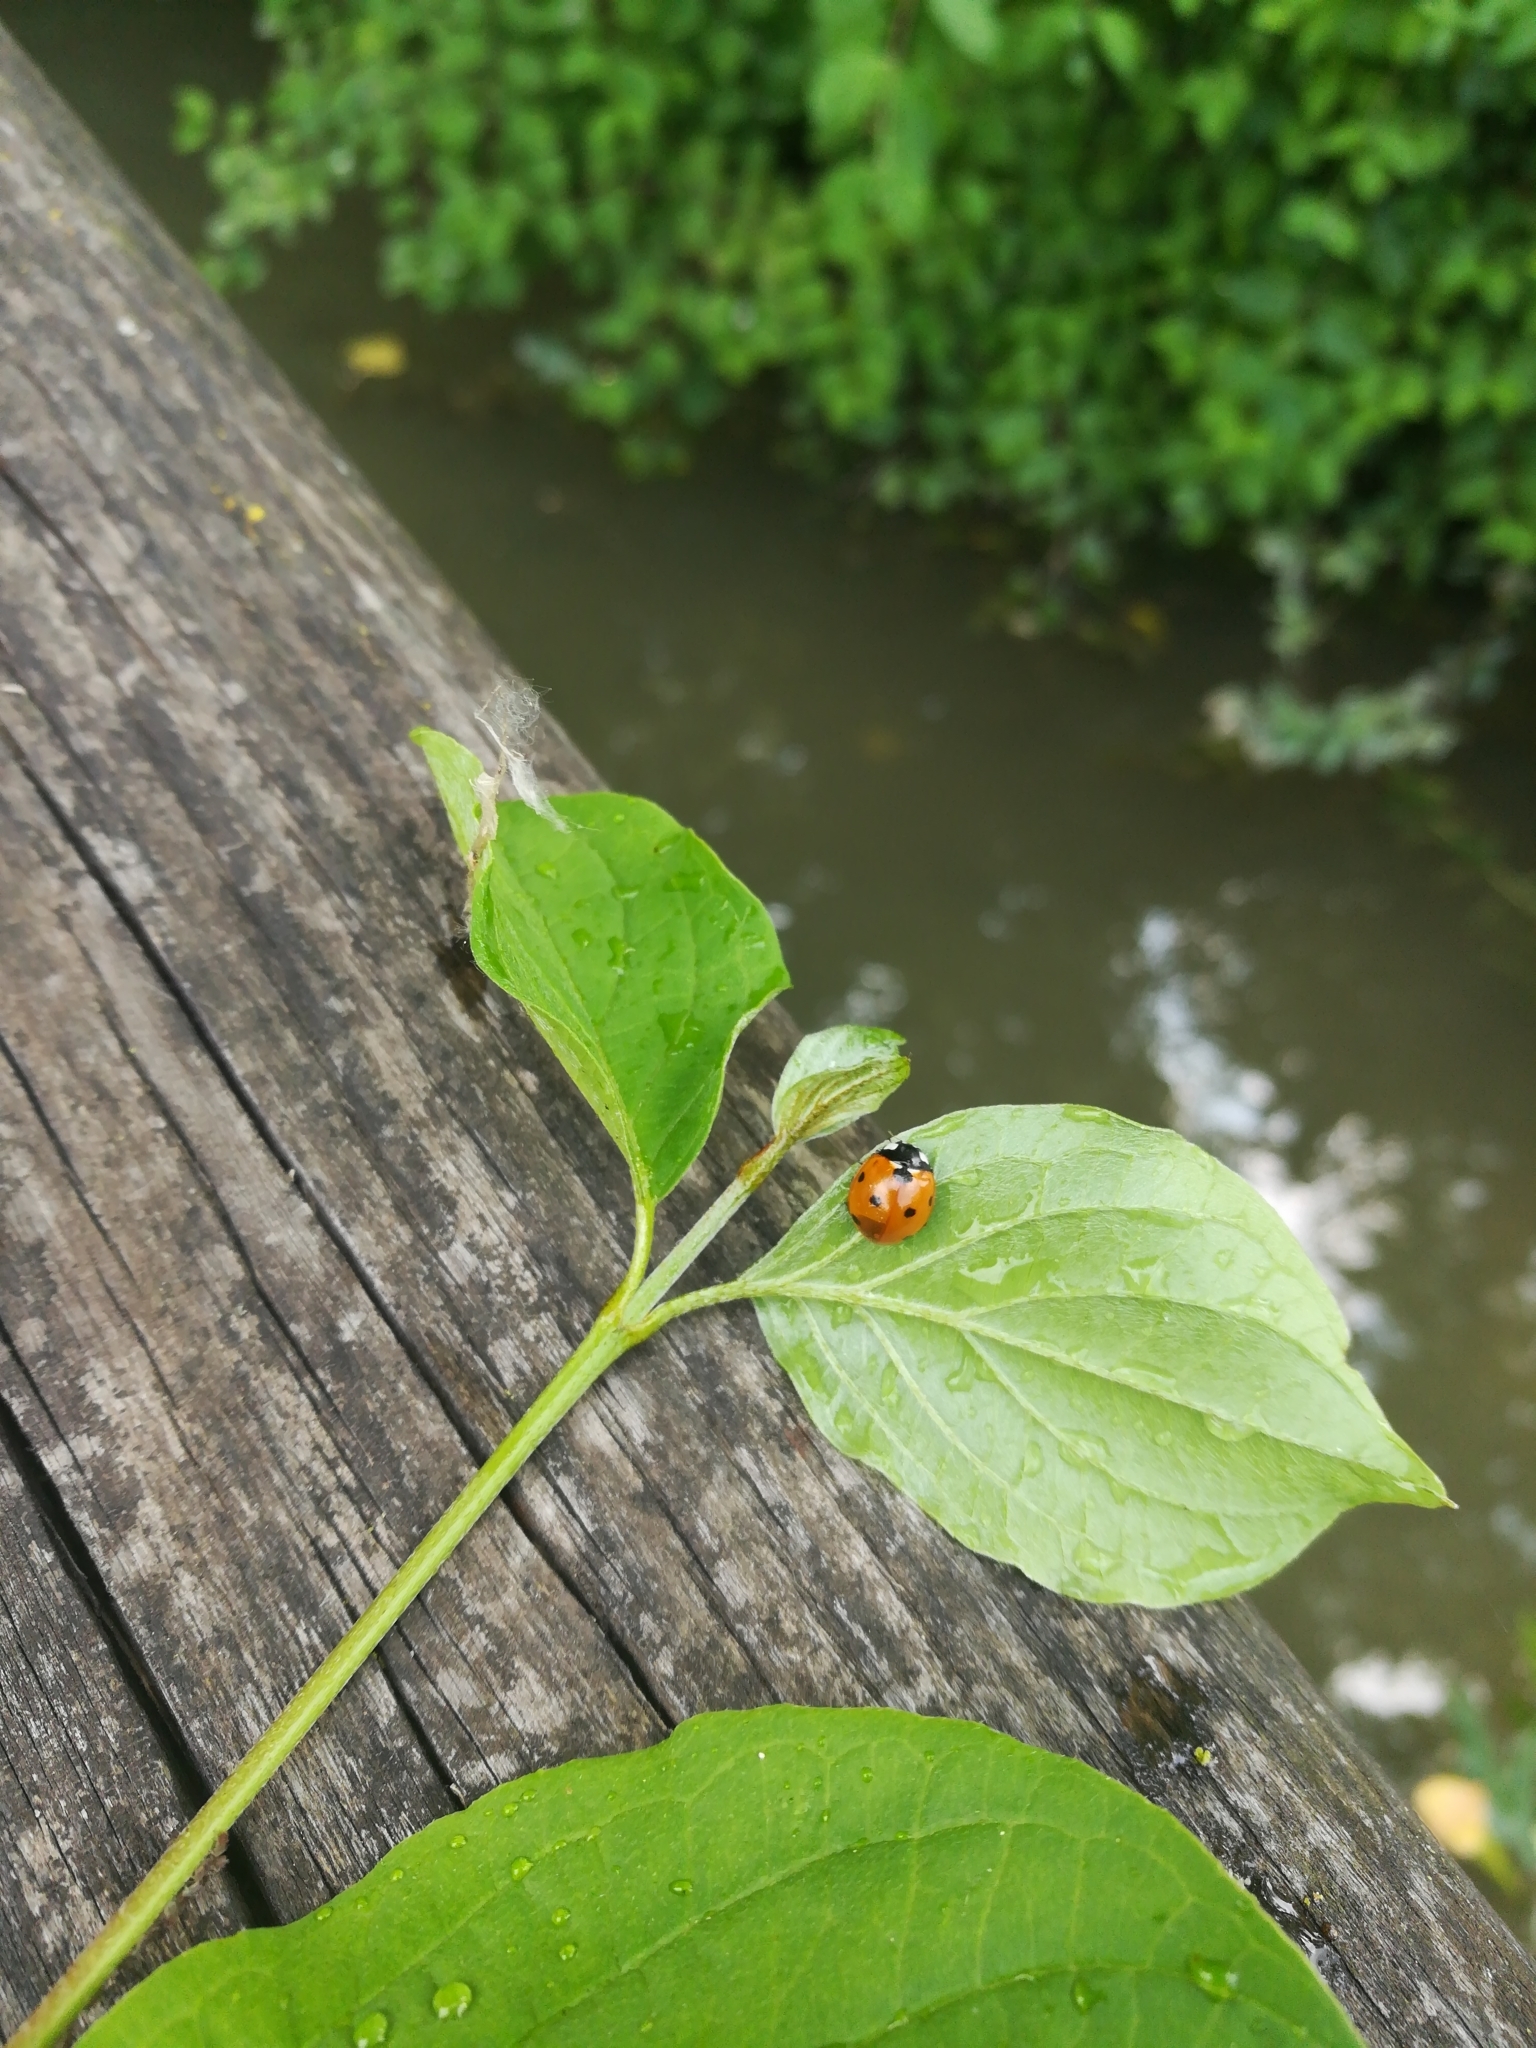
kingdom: Animalia
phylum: Arthropoda
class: Insecta
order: Coleoptera
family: Coccinellidae
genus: Coccinella
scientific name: Coccinella septempunctata
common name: Sevenspotted lady beetle
